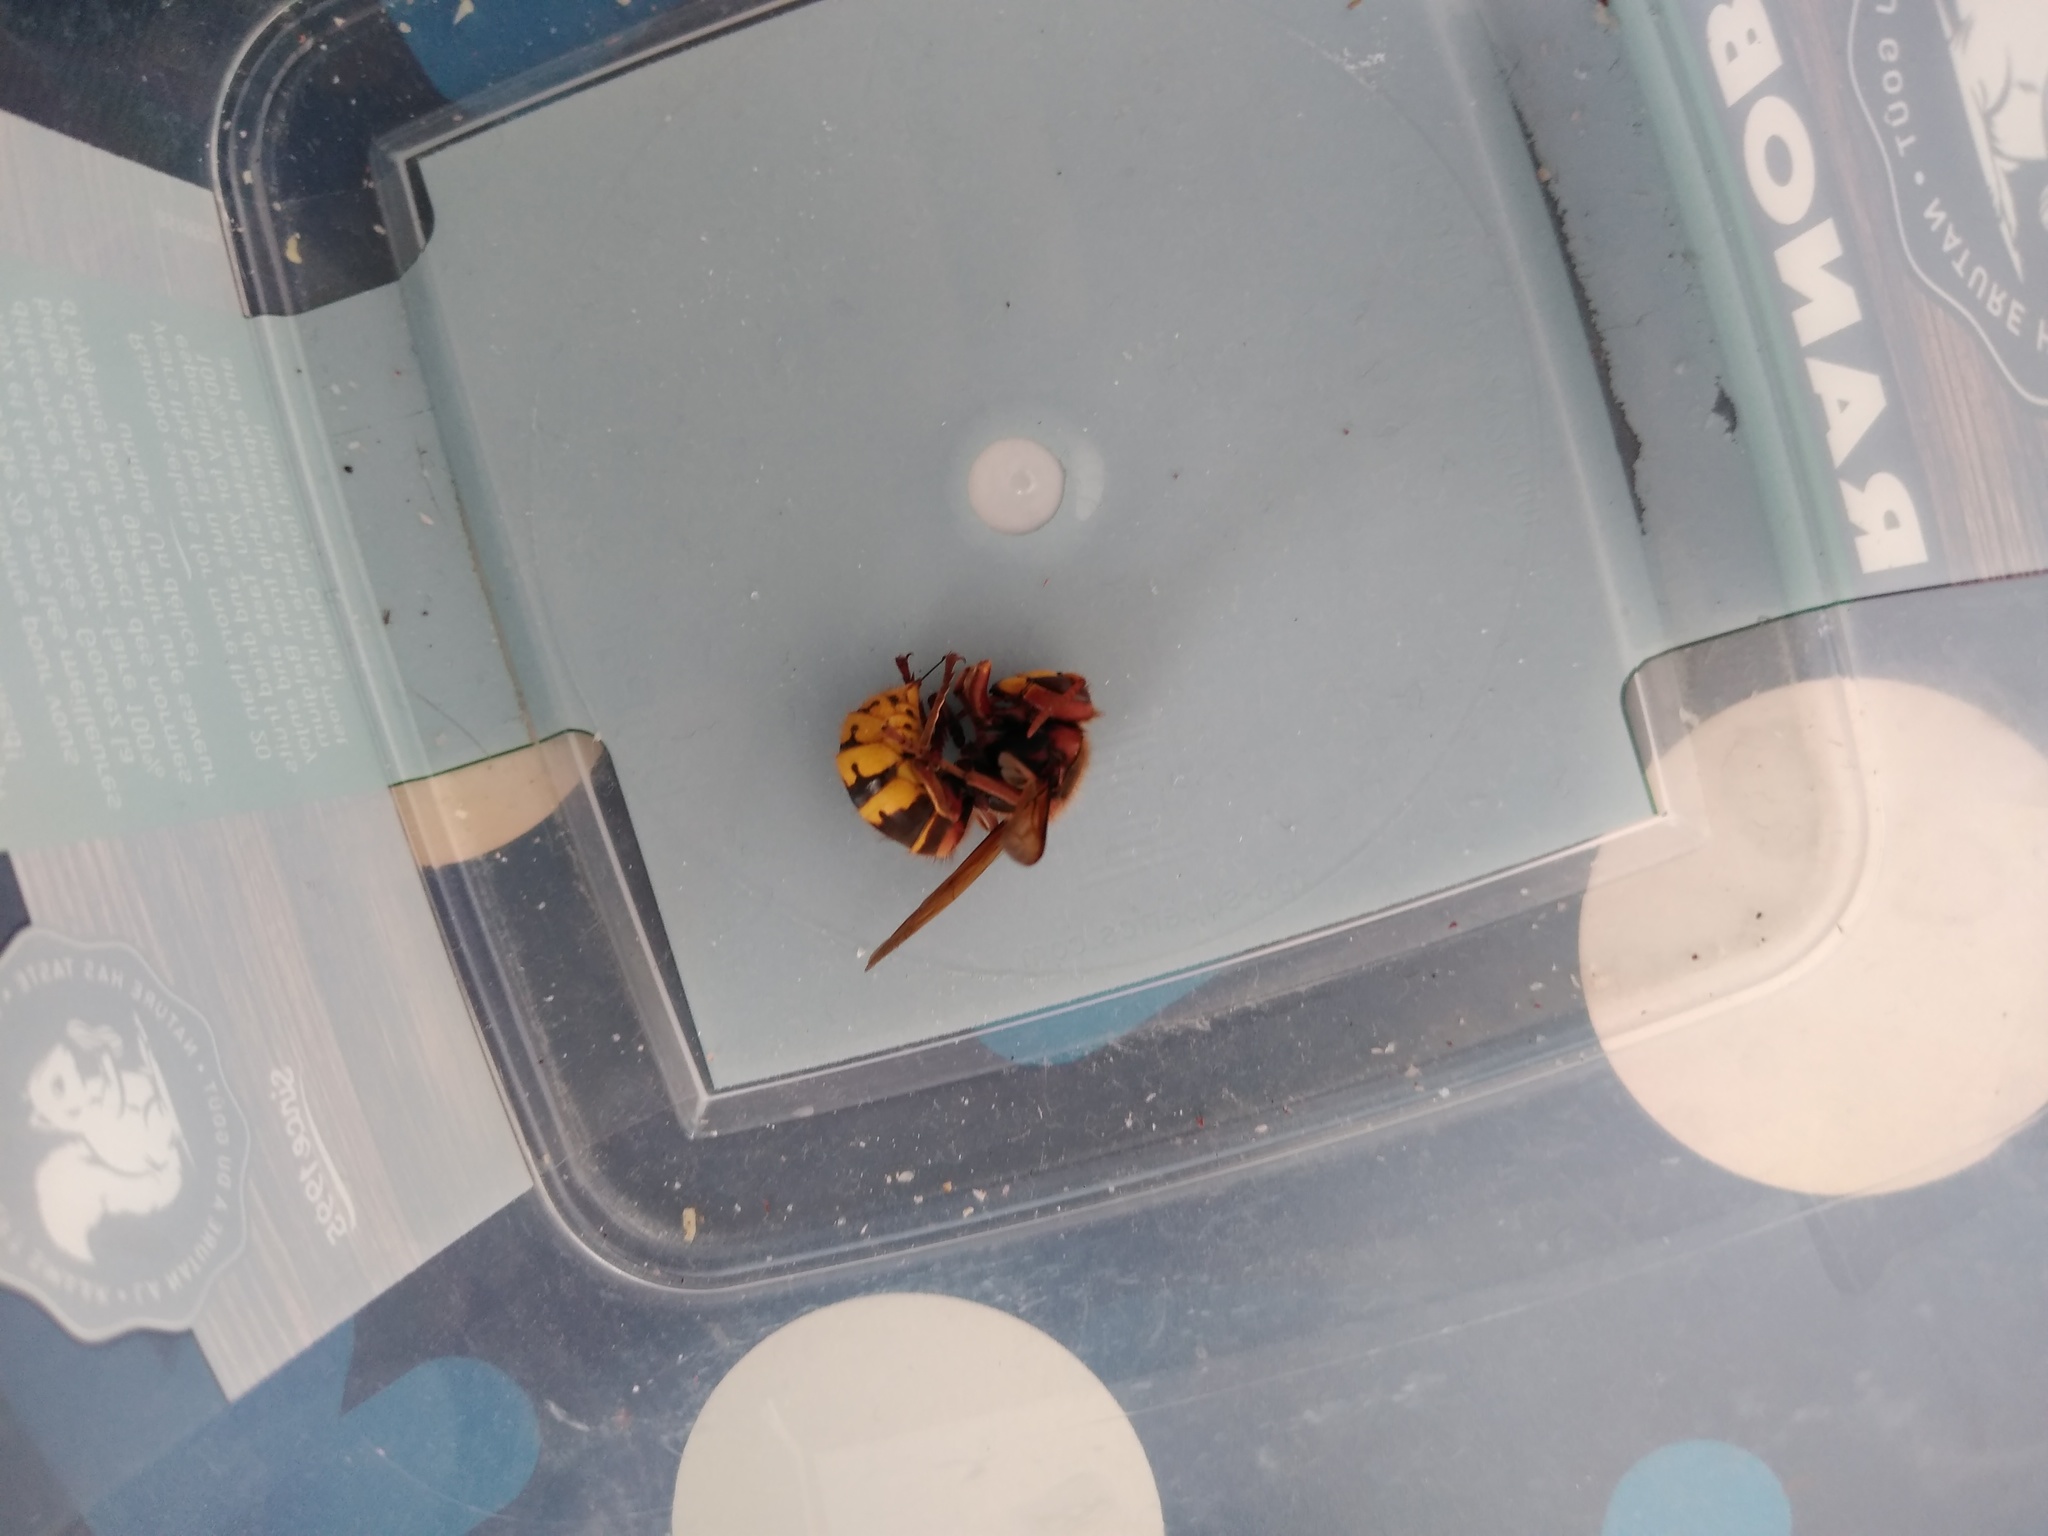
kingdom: Animalia
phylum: Arthropoda
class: Insecta
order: Hymenoptera
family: Vespidae
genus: Vespa
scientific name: Vespa crabro
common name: Hornet
